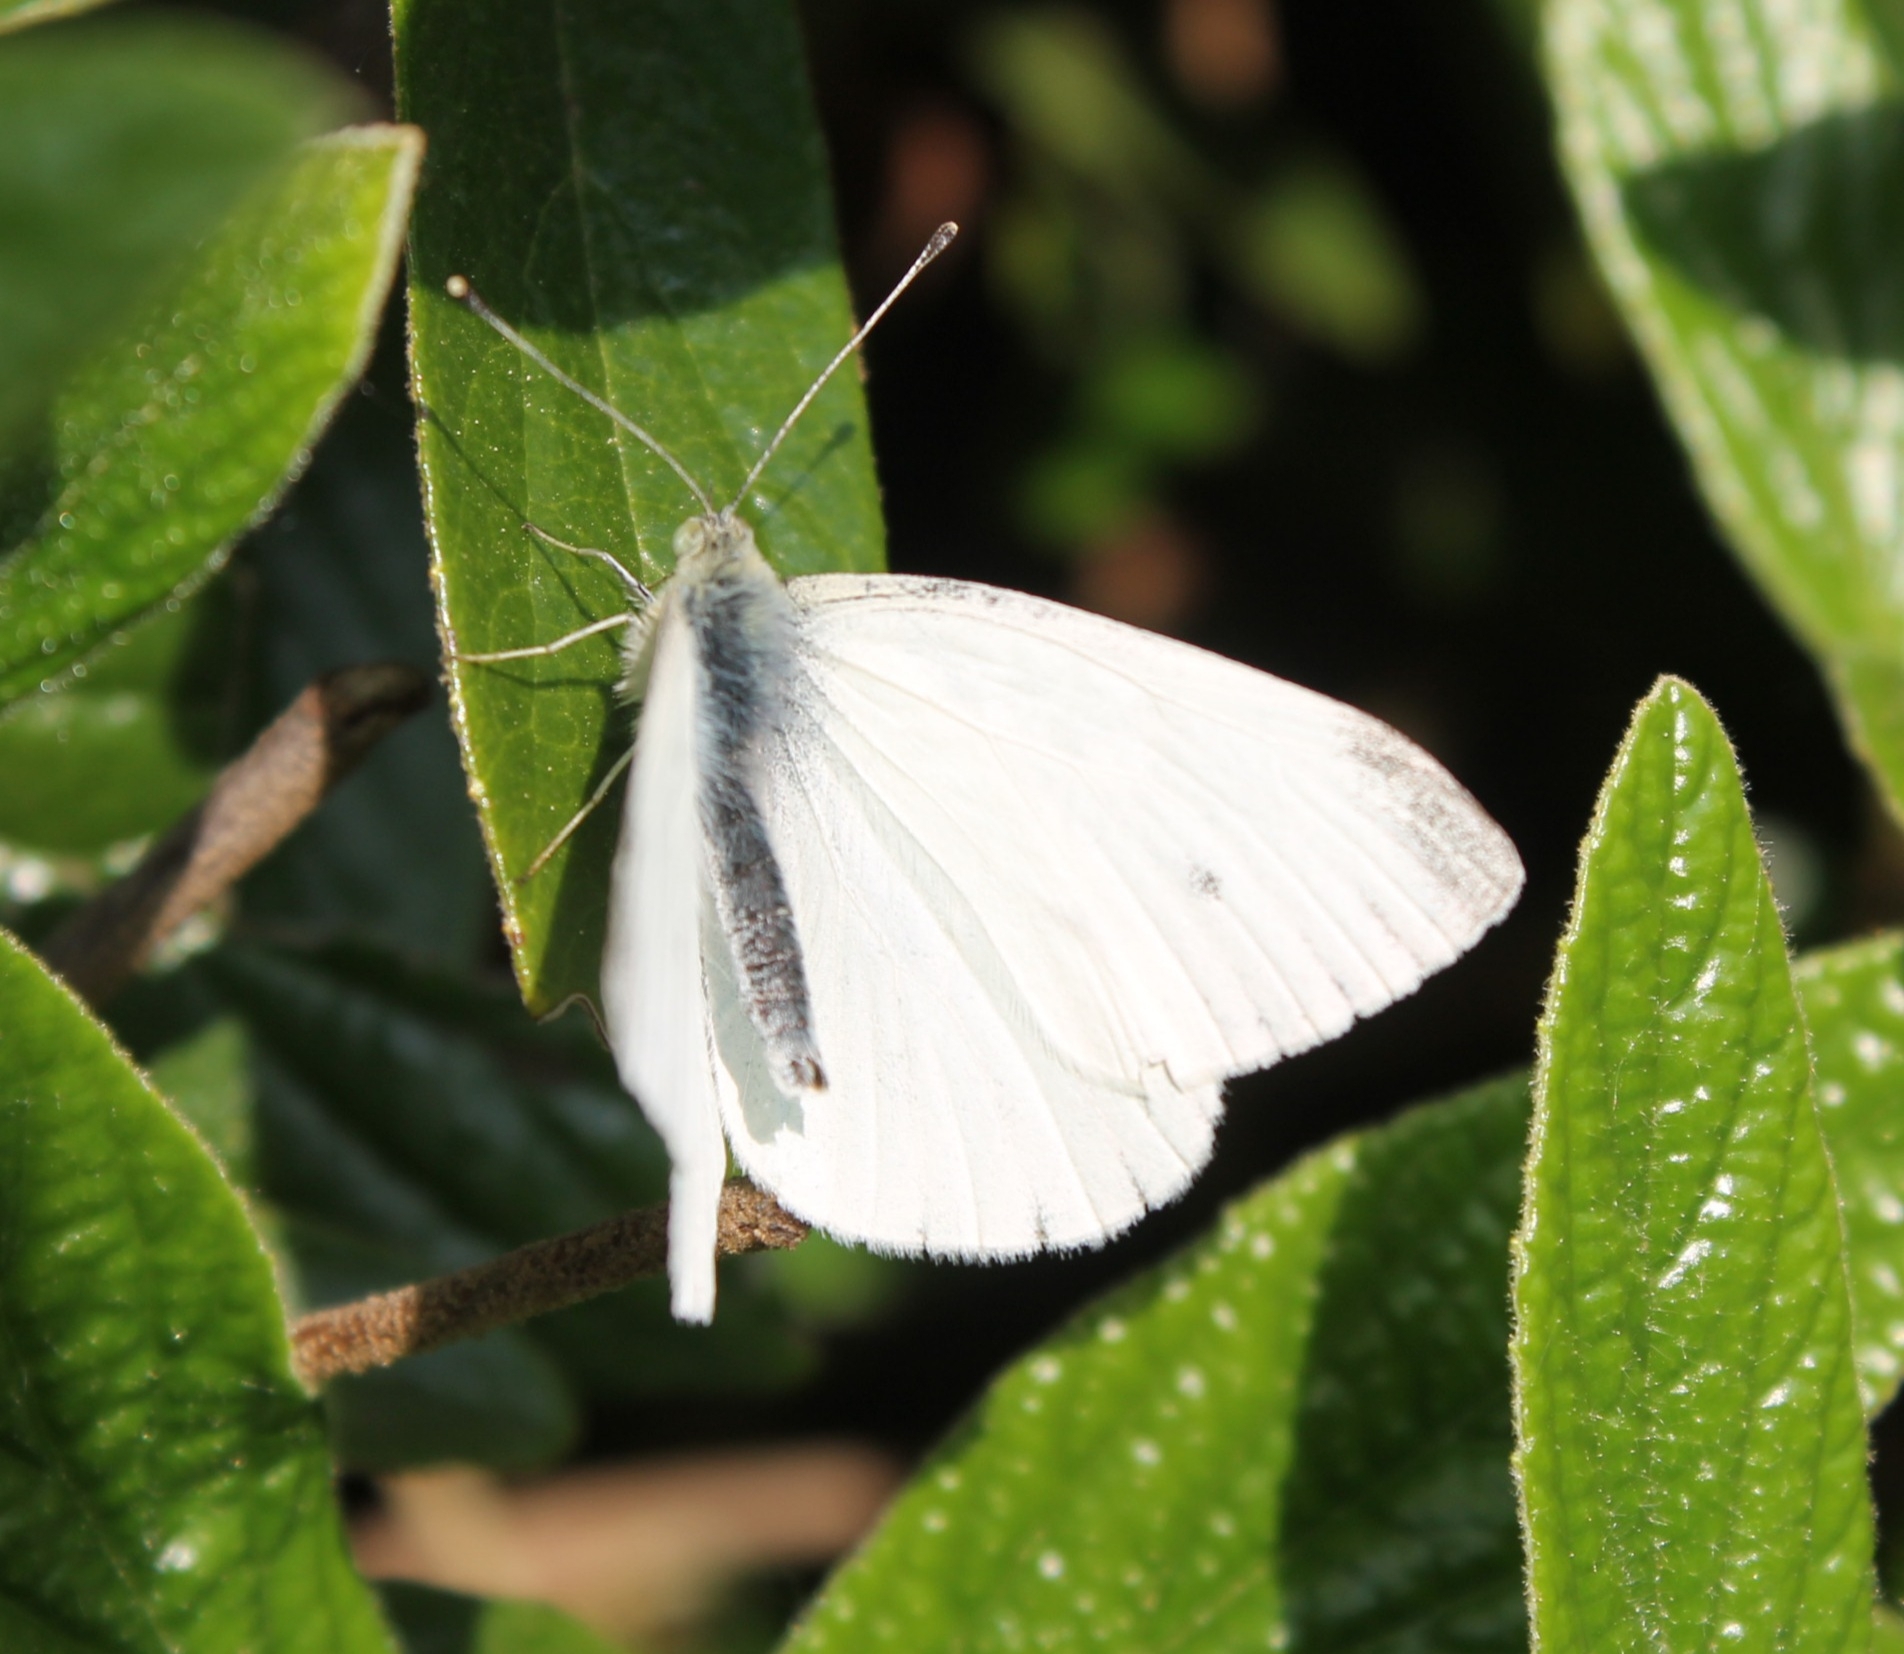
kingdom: Animalia
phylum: Arthropoda
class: Insecta
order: Lepidoptera
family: Pieridae
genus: Pieris
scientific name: Pieris napi
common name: Green-veined white
